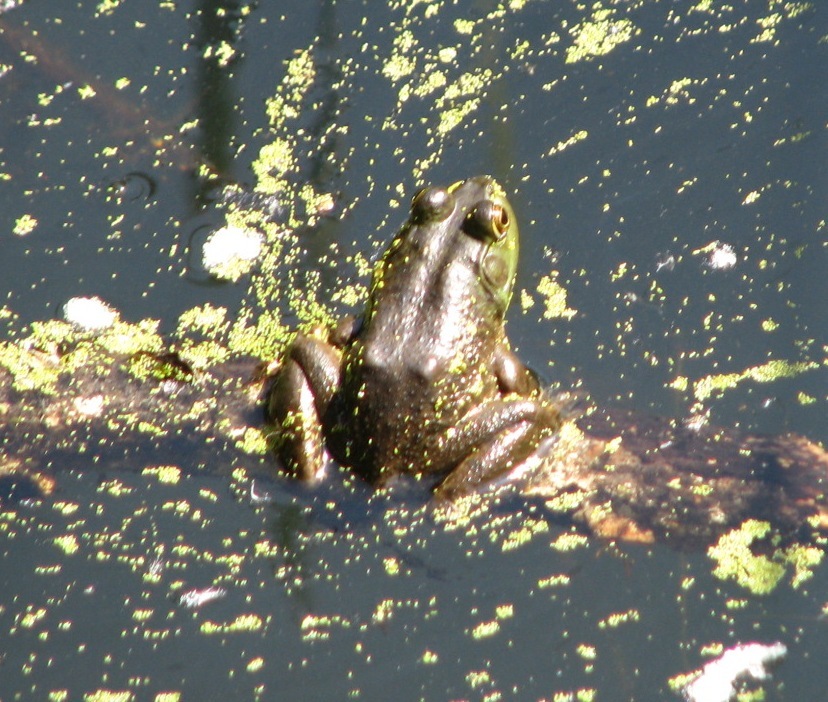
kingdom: Animalia
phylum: Chordata
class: Amphibia
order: Anura
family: Ranidae
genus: Lithobates
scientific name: Lithobates catesbeianus
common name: American bullfrog
